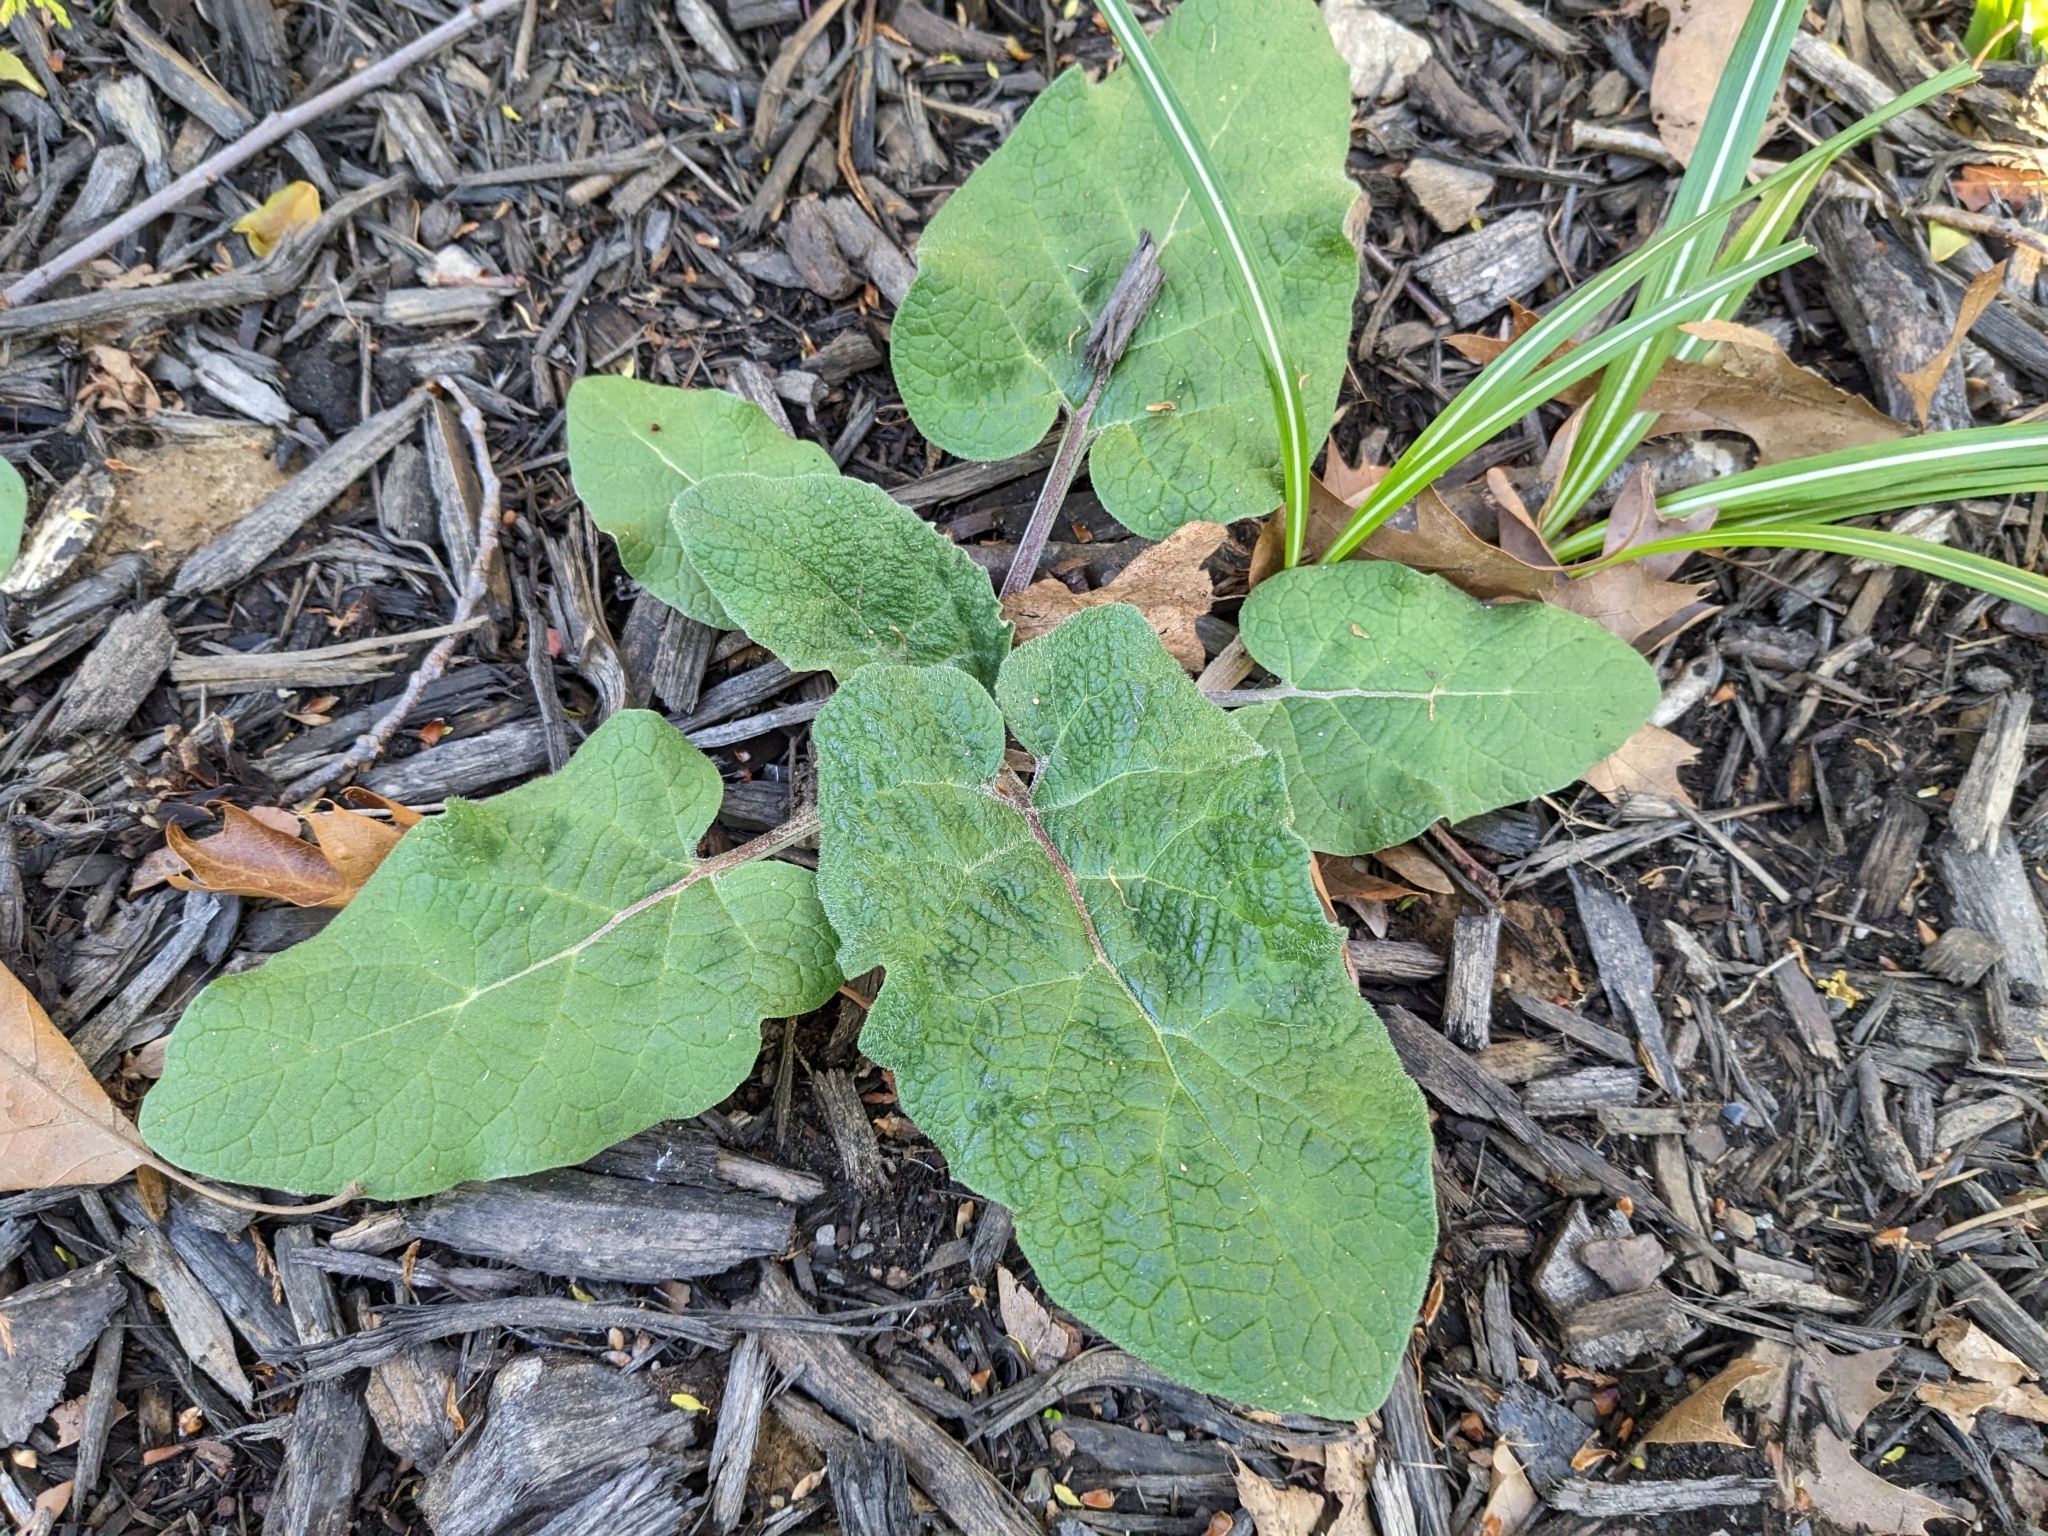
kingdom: Plantae
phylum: Tracheophyta
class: Magnoliopsida
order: Asterales
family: Asteraceae
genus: Arctium
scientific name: Arctium
